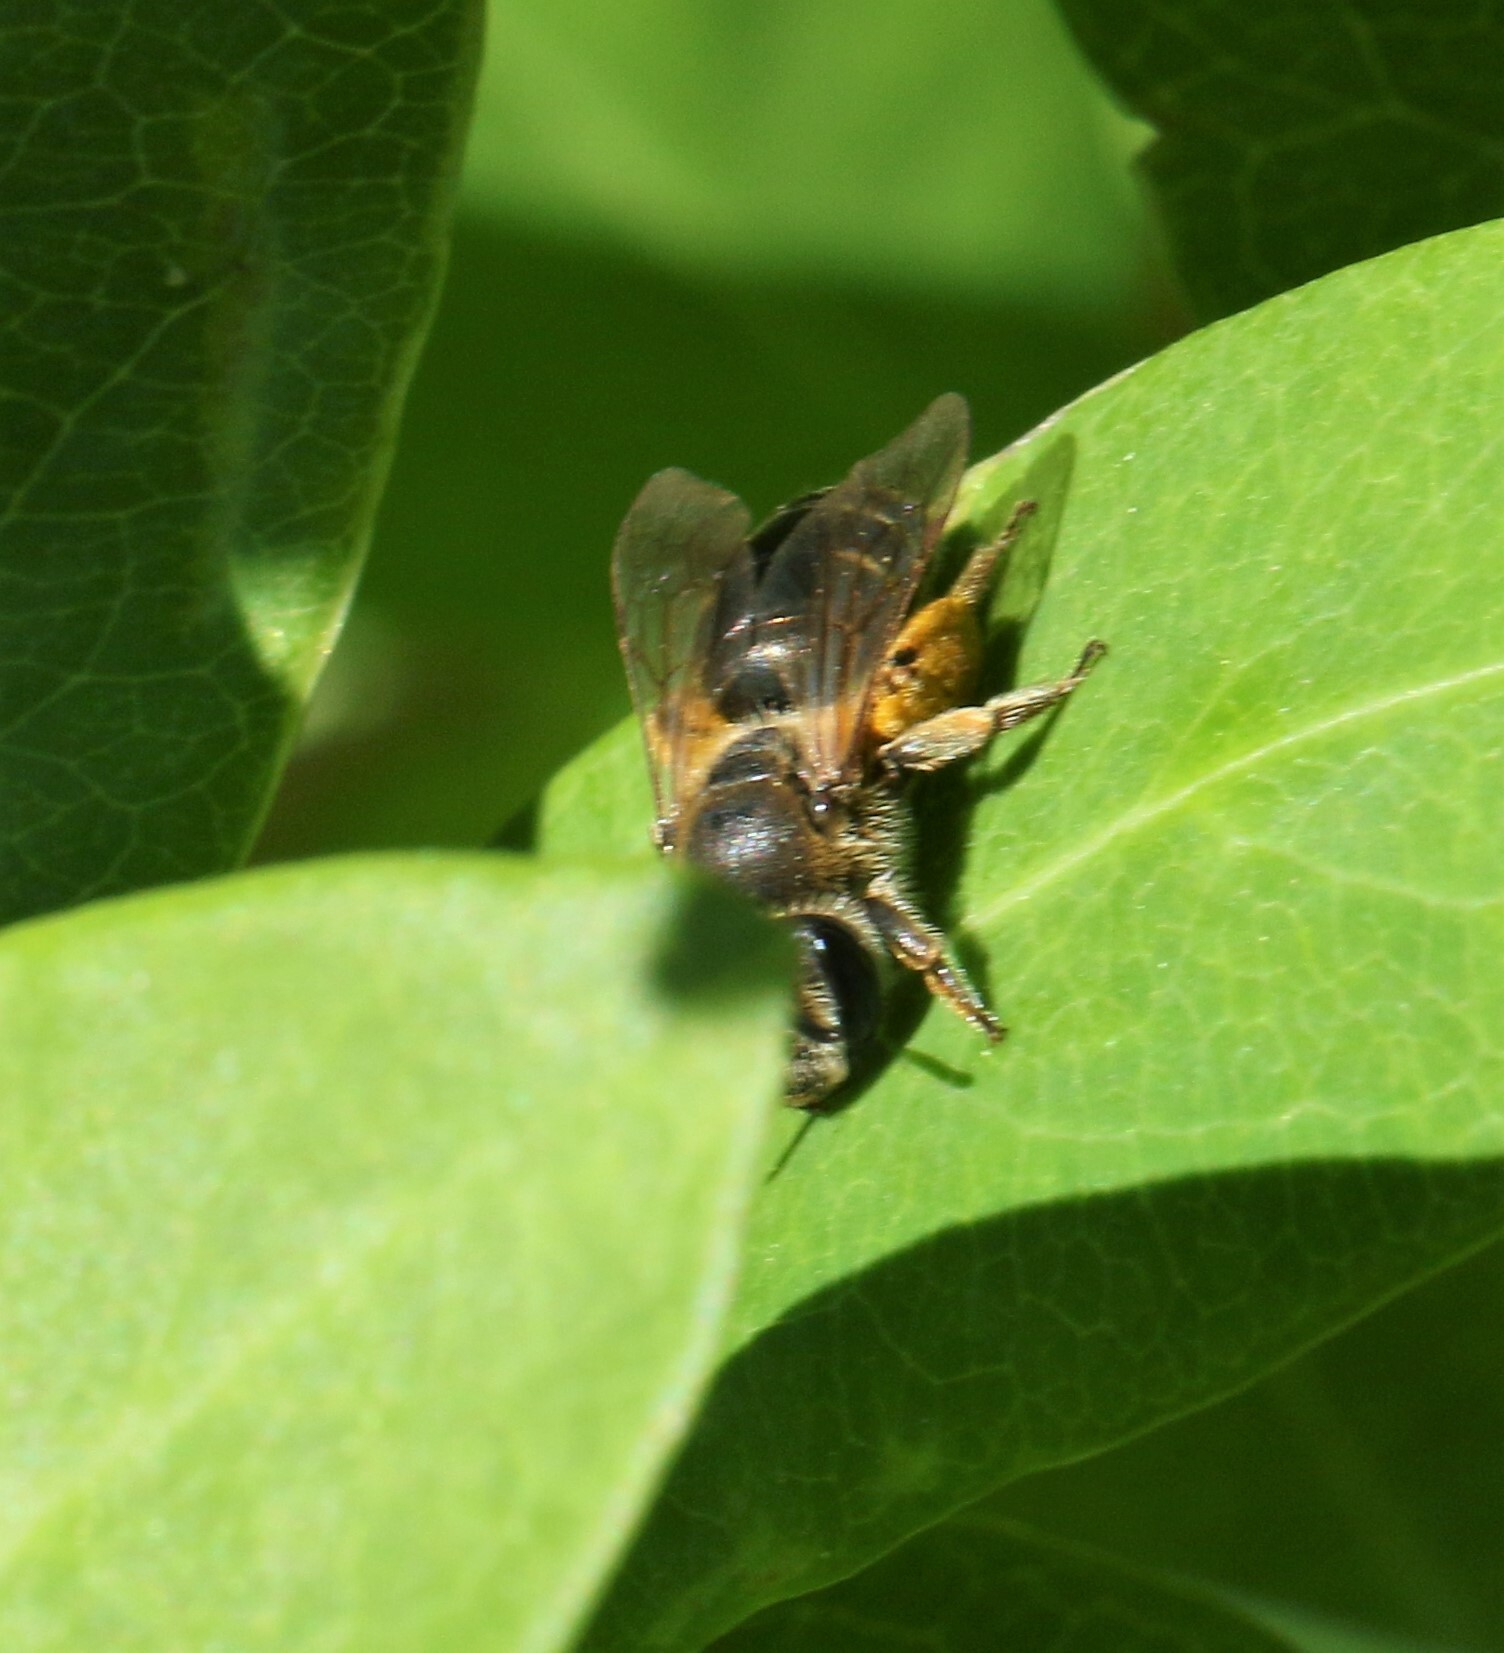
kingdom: Animalia
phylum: Arthropoda
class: Insecta
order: Hymenoptera
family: Andrenidae
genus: Andrena
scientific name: Andrena wilkella
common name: Wilke's mining bee
